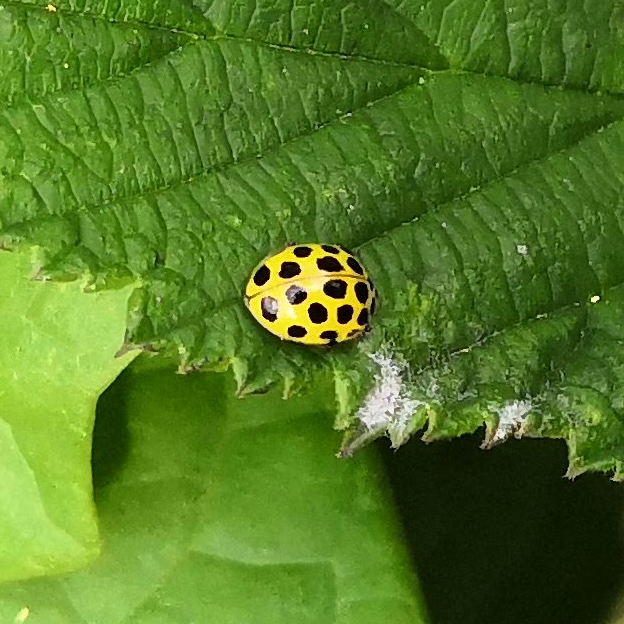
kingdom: Animalia
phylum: Arthropoda
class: Insecta
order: Coleoptera
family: Coccinellidae
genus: Psyllobora
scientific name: Psyllobora vigintiduopunctata
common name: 22-spot ladybird
